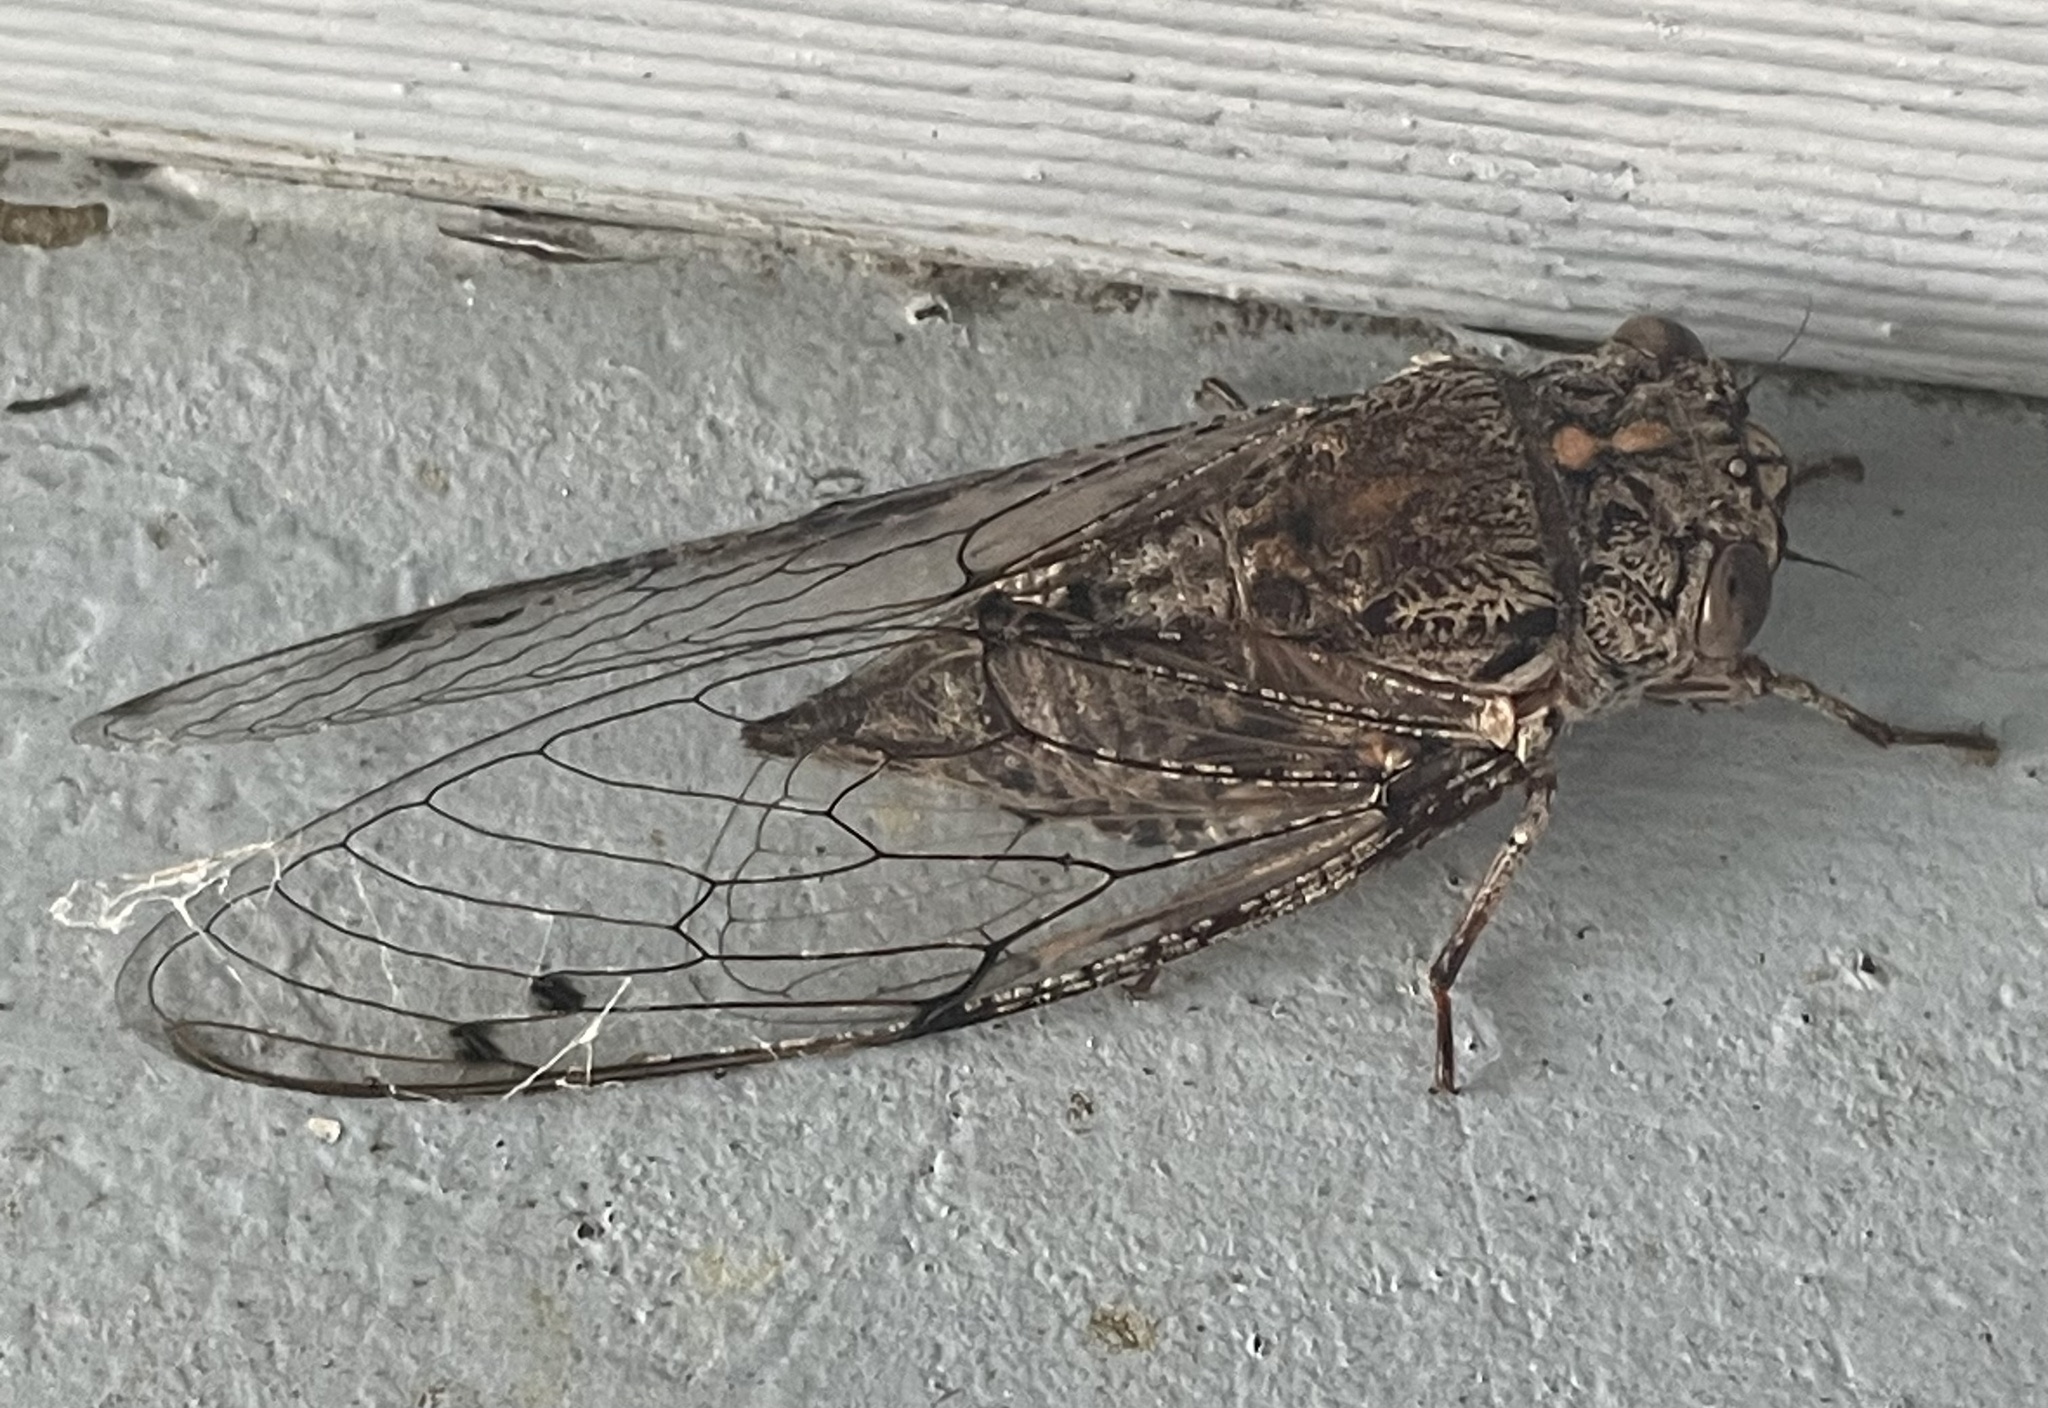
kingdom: Animalia
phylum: Arthropoda
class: Insecta
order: Hemiptera
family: Cicadidae
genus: Aleeta
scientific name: Aleeta curvicosta
